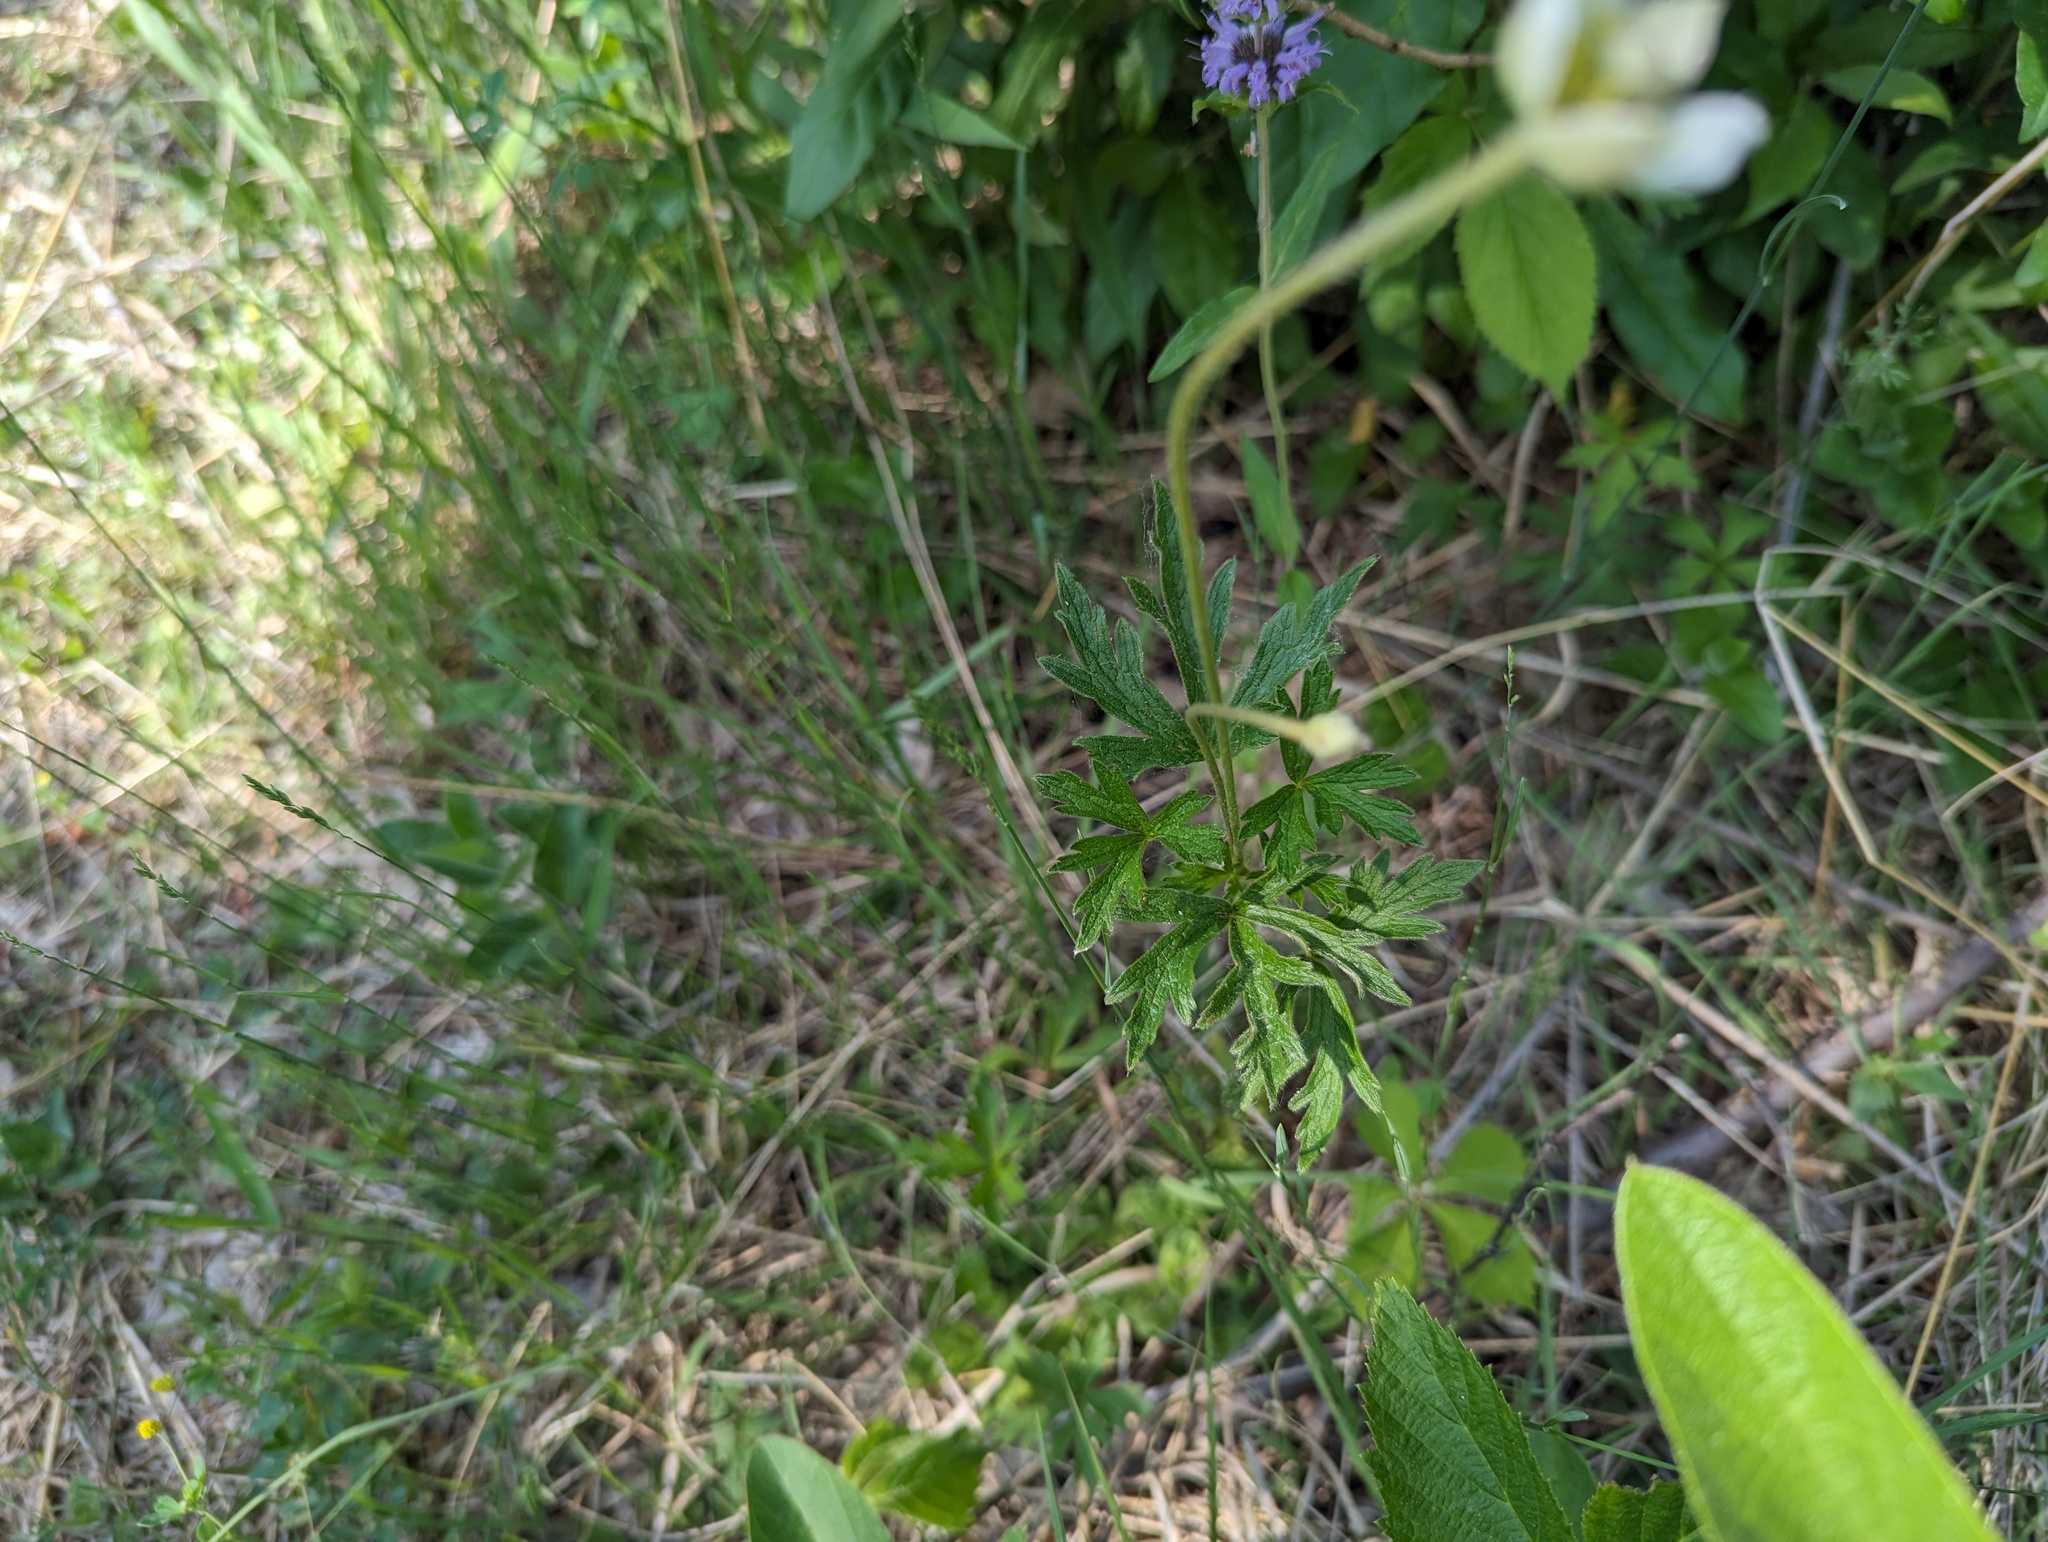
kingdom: Plantae
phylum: Tracheophyta
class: Magnoliopsida
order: Ranunculales
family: Ranunculaceae
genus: Anemone
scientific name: Anemone cylindrica
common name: Candle anemone
